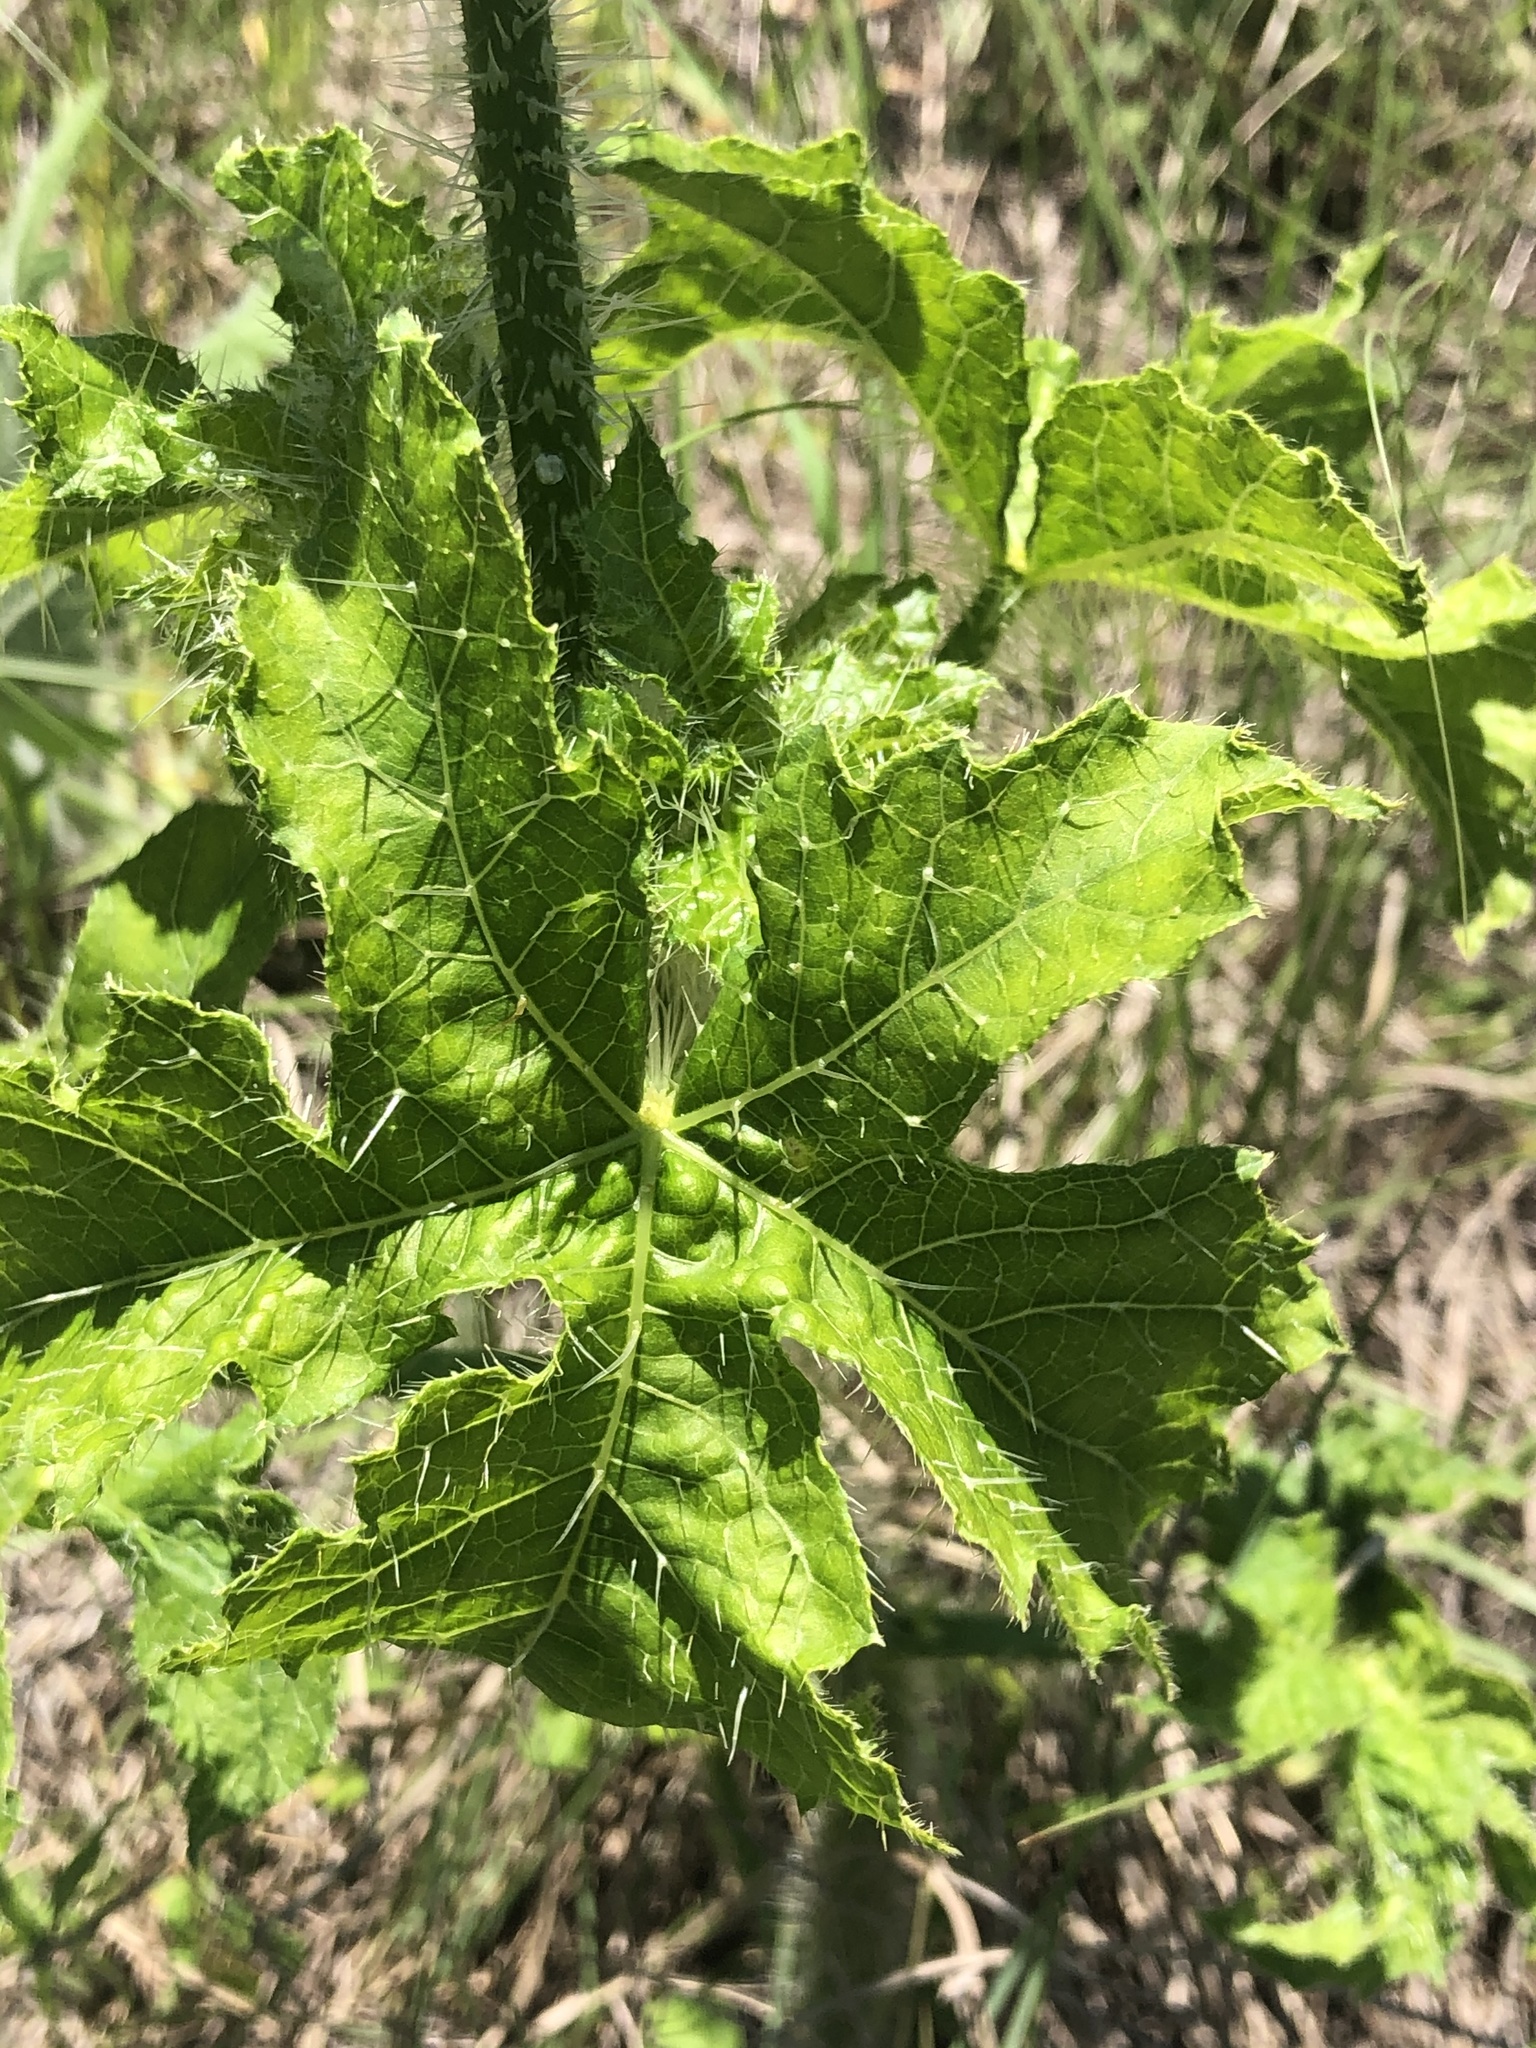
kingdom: Plantae
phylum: Tracheophyta
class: Magnoliopsida
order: Malpighiales
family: Euphorbiaceae
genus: Cnidoscolus
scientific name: Cnidoscolus texanus
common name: Texas bull-nettle
